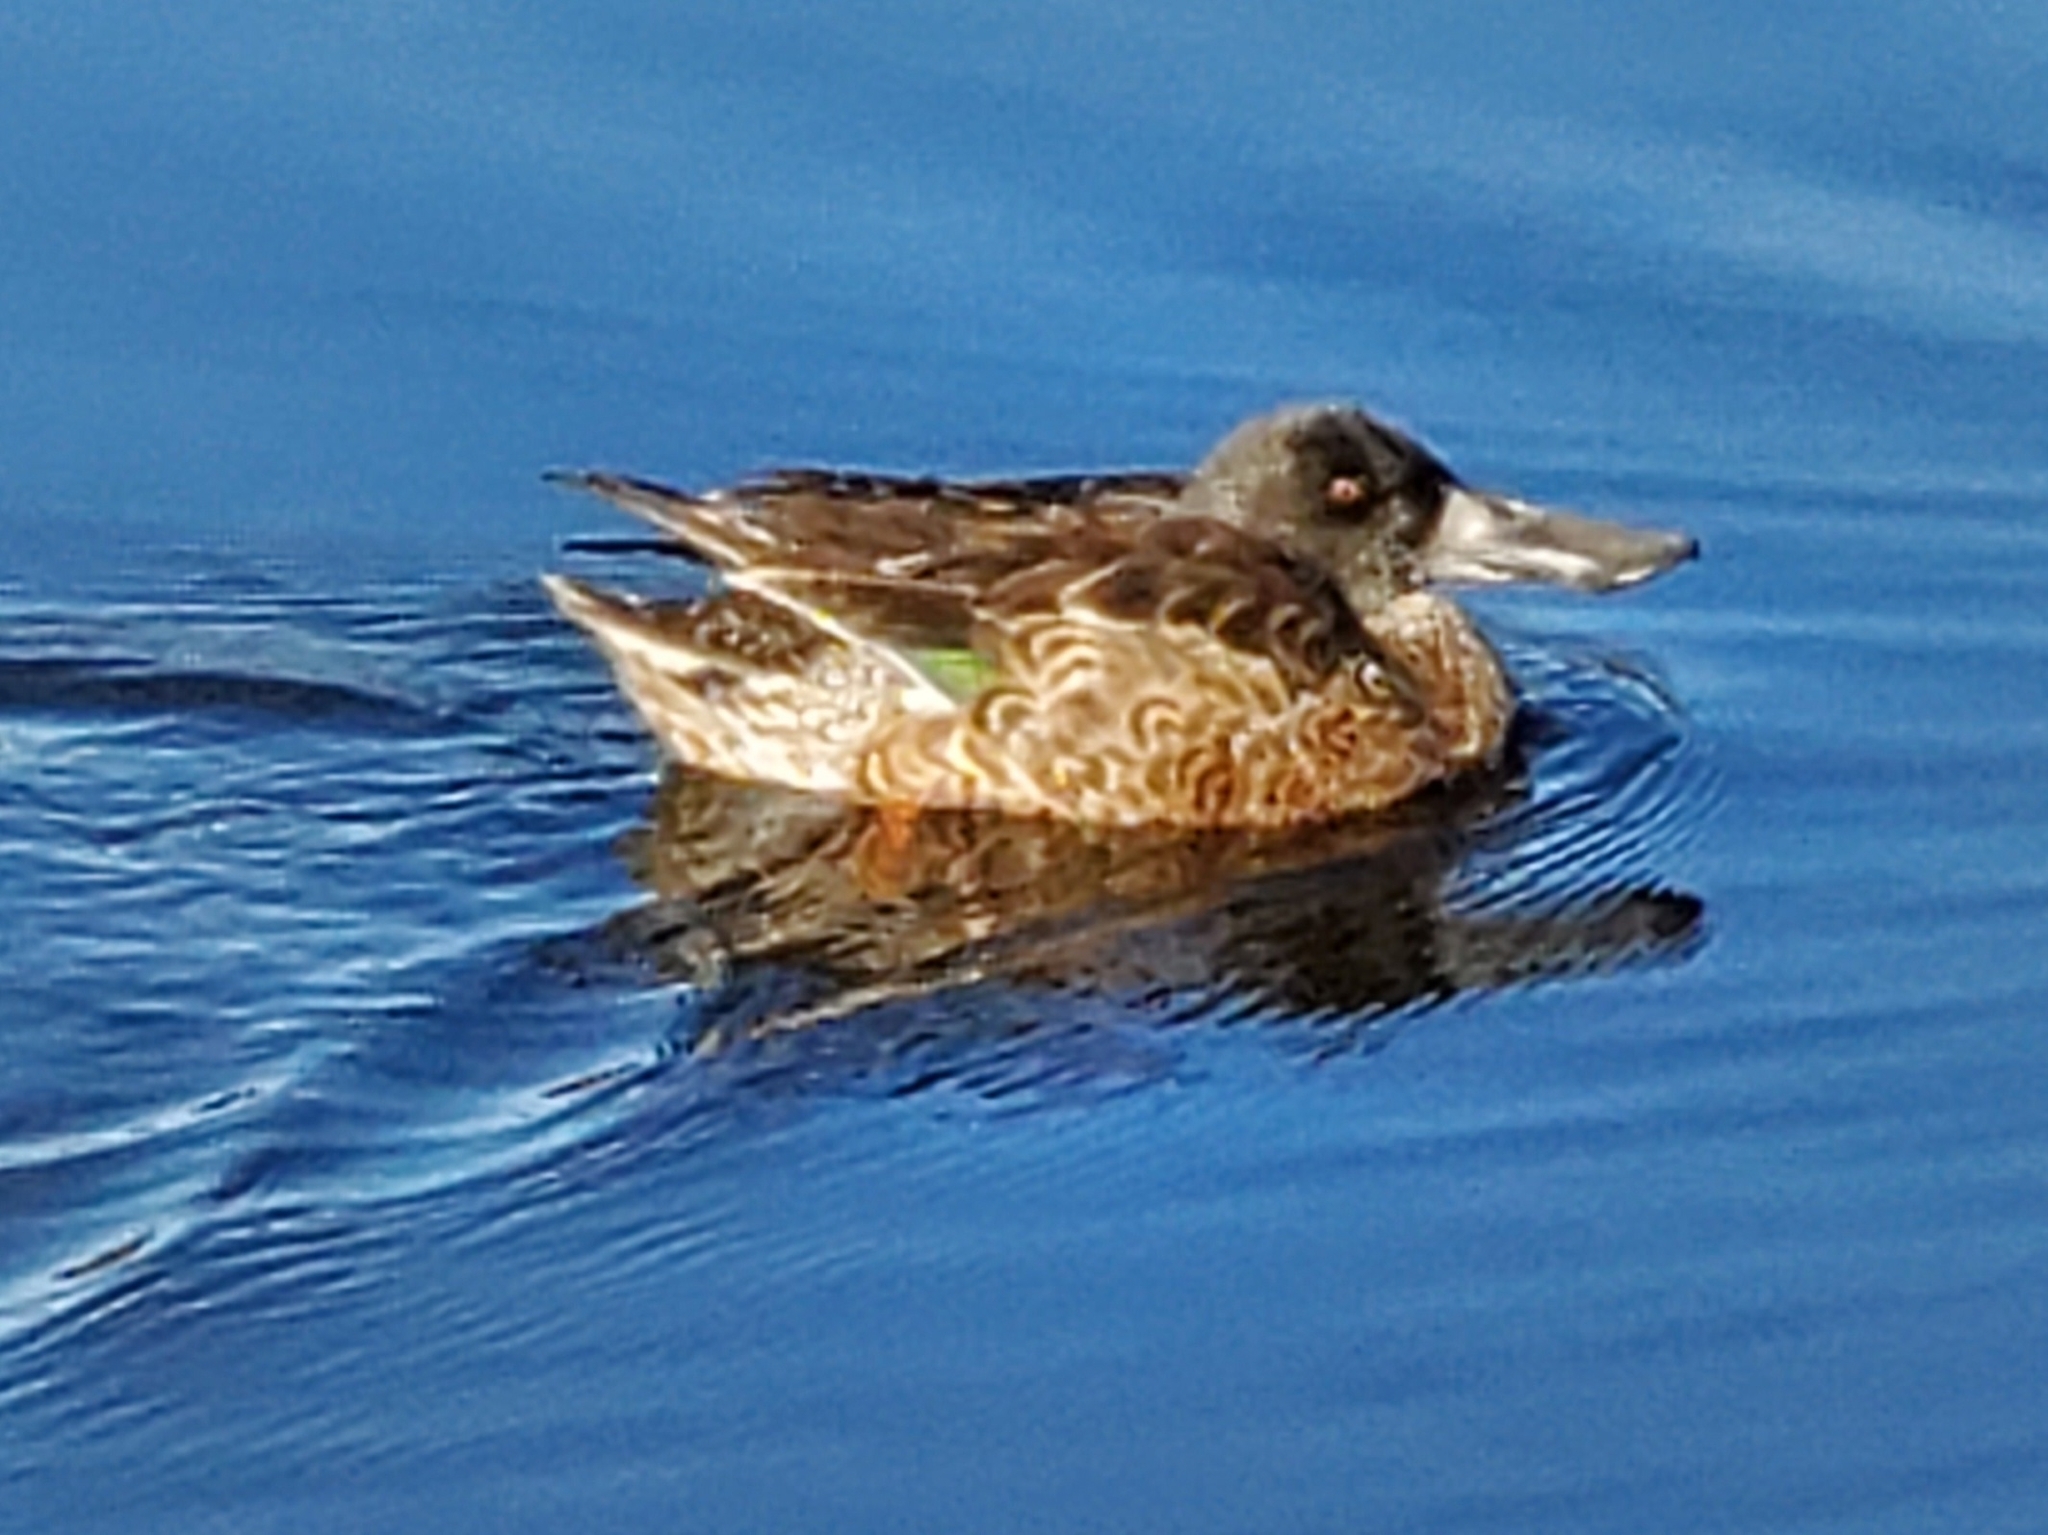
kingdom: Animalia
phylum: Chordata
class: Aves
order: Anseriformes
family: Anatidae
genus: Spatula
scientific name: Spatula clypeata
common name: Northern shoveler
